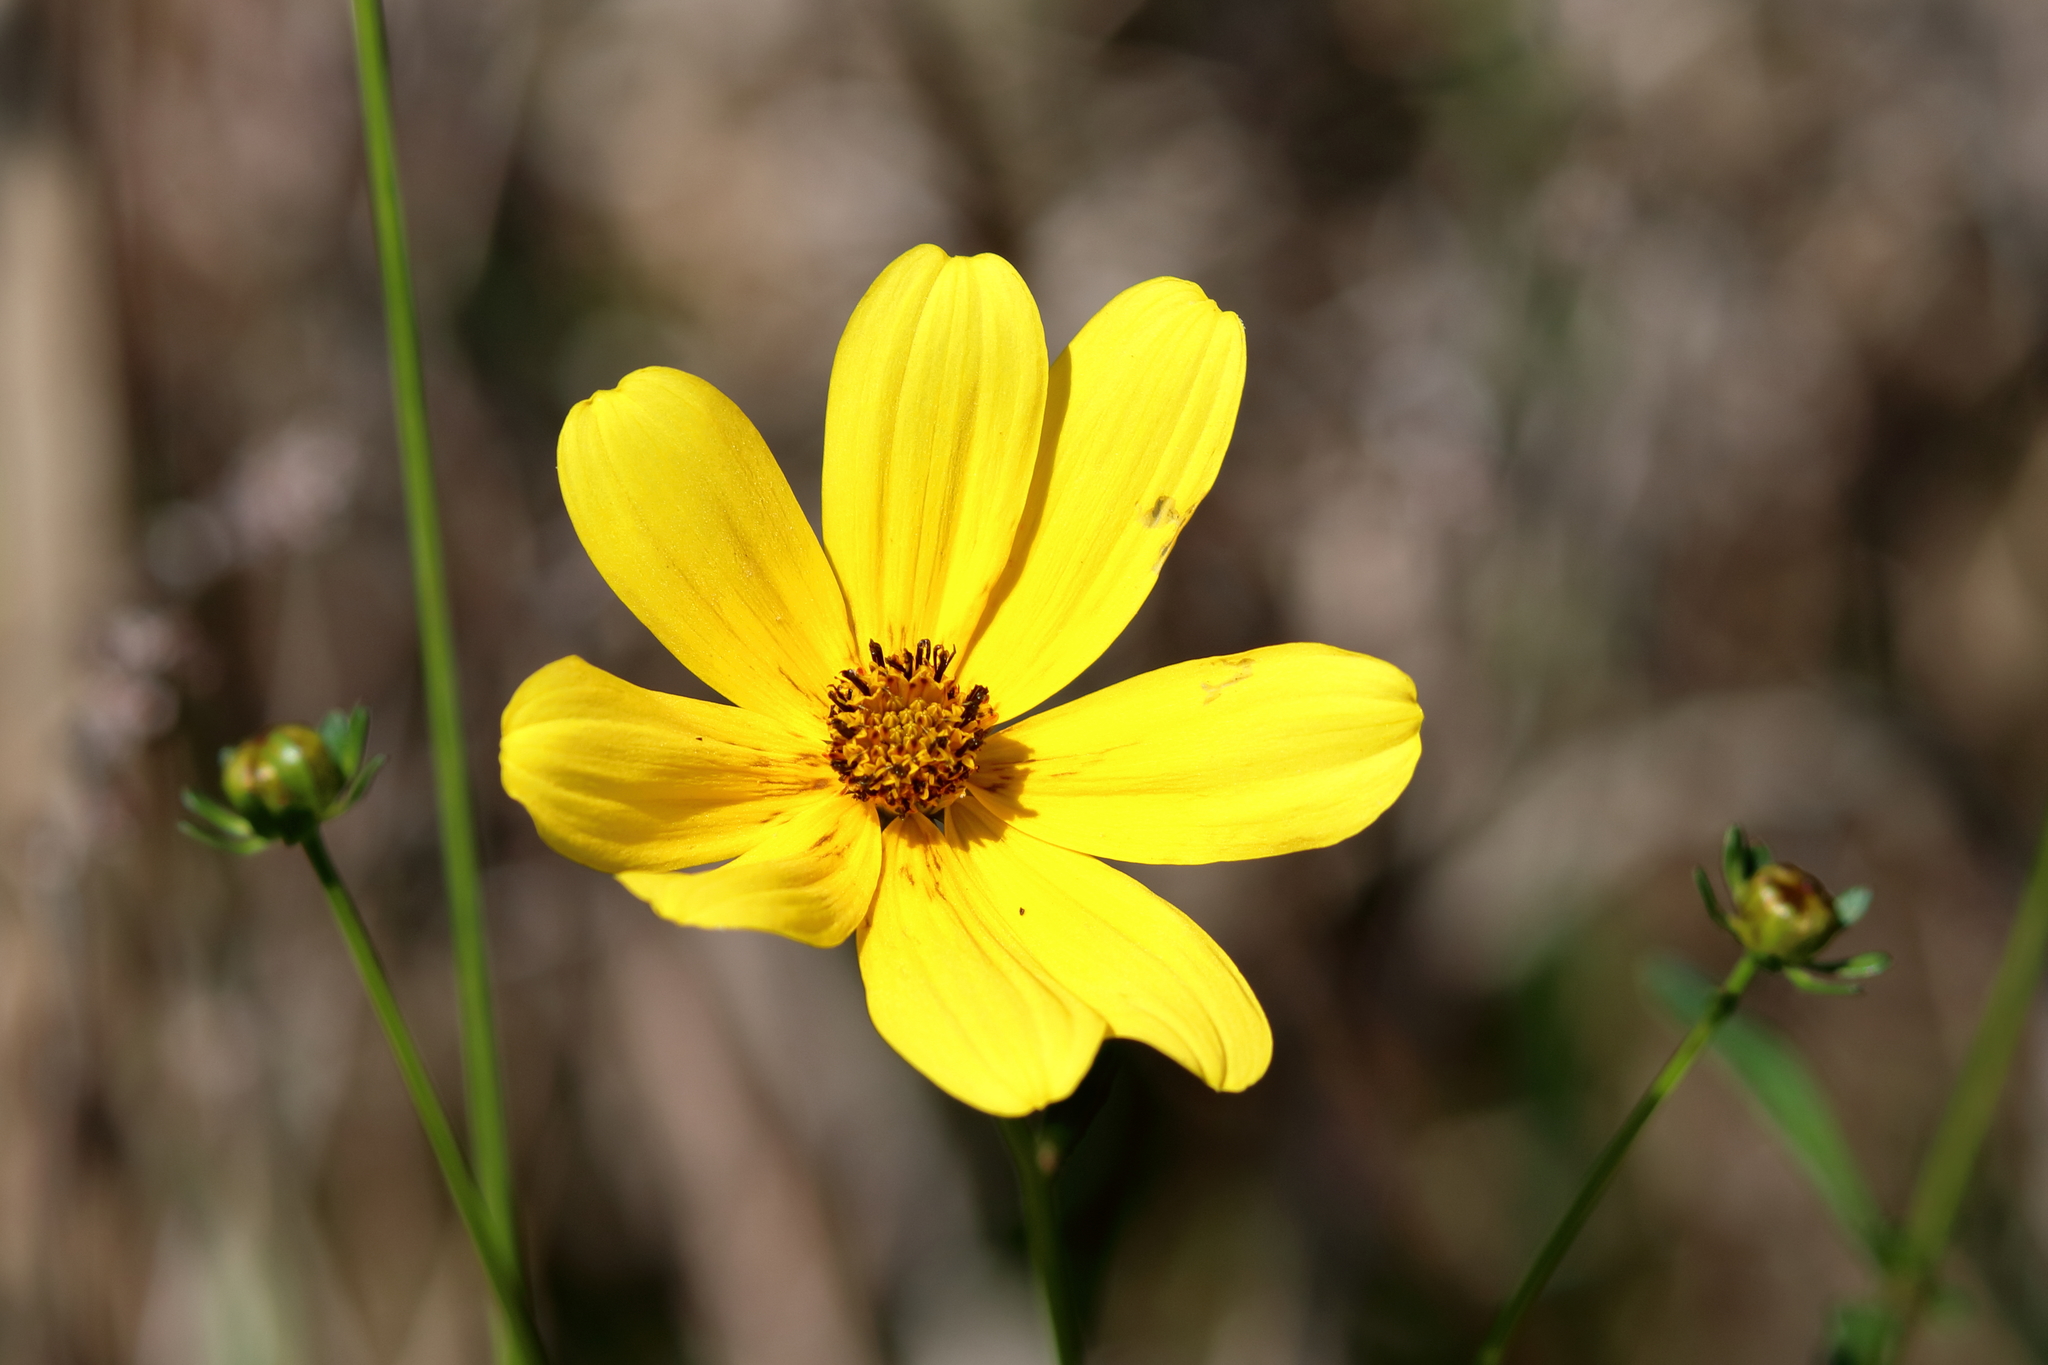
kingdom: Plantae
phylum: Tracheophyta
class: Magnoliopsida
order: Asterales
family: Asteraceae
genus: Bidens
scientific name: Bidens mitis
